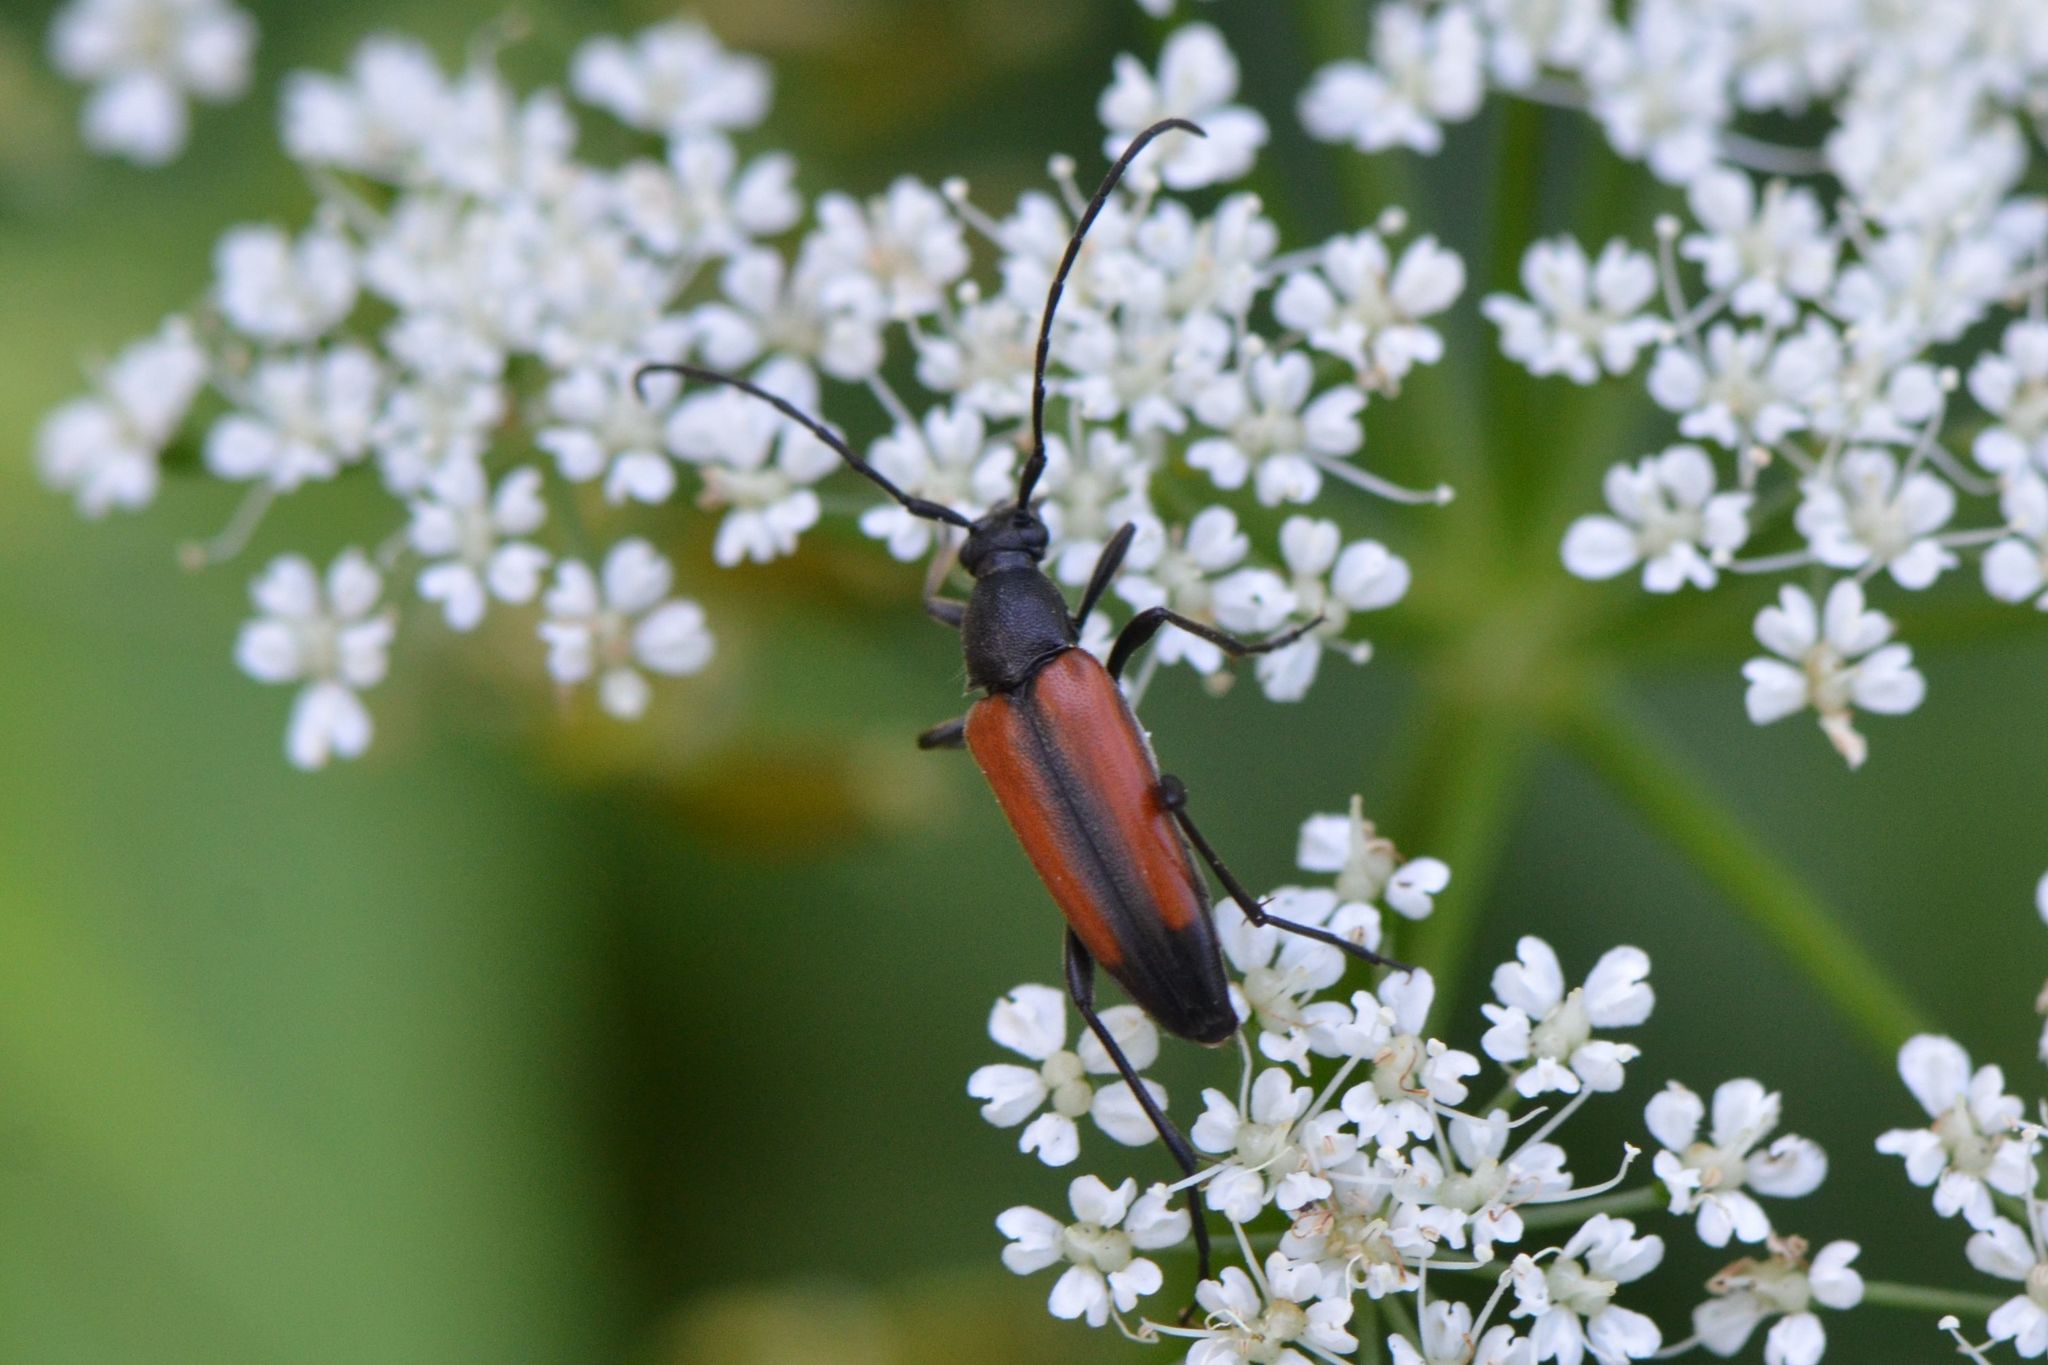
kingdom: Animalia
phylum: Arthropoda
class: Insecta
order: Coleoptera
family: Cerambycidae
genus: Stenurella
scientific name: Stenurella melanura
